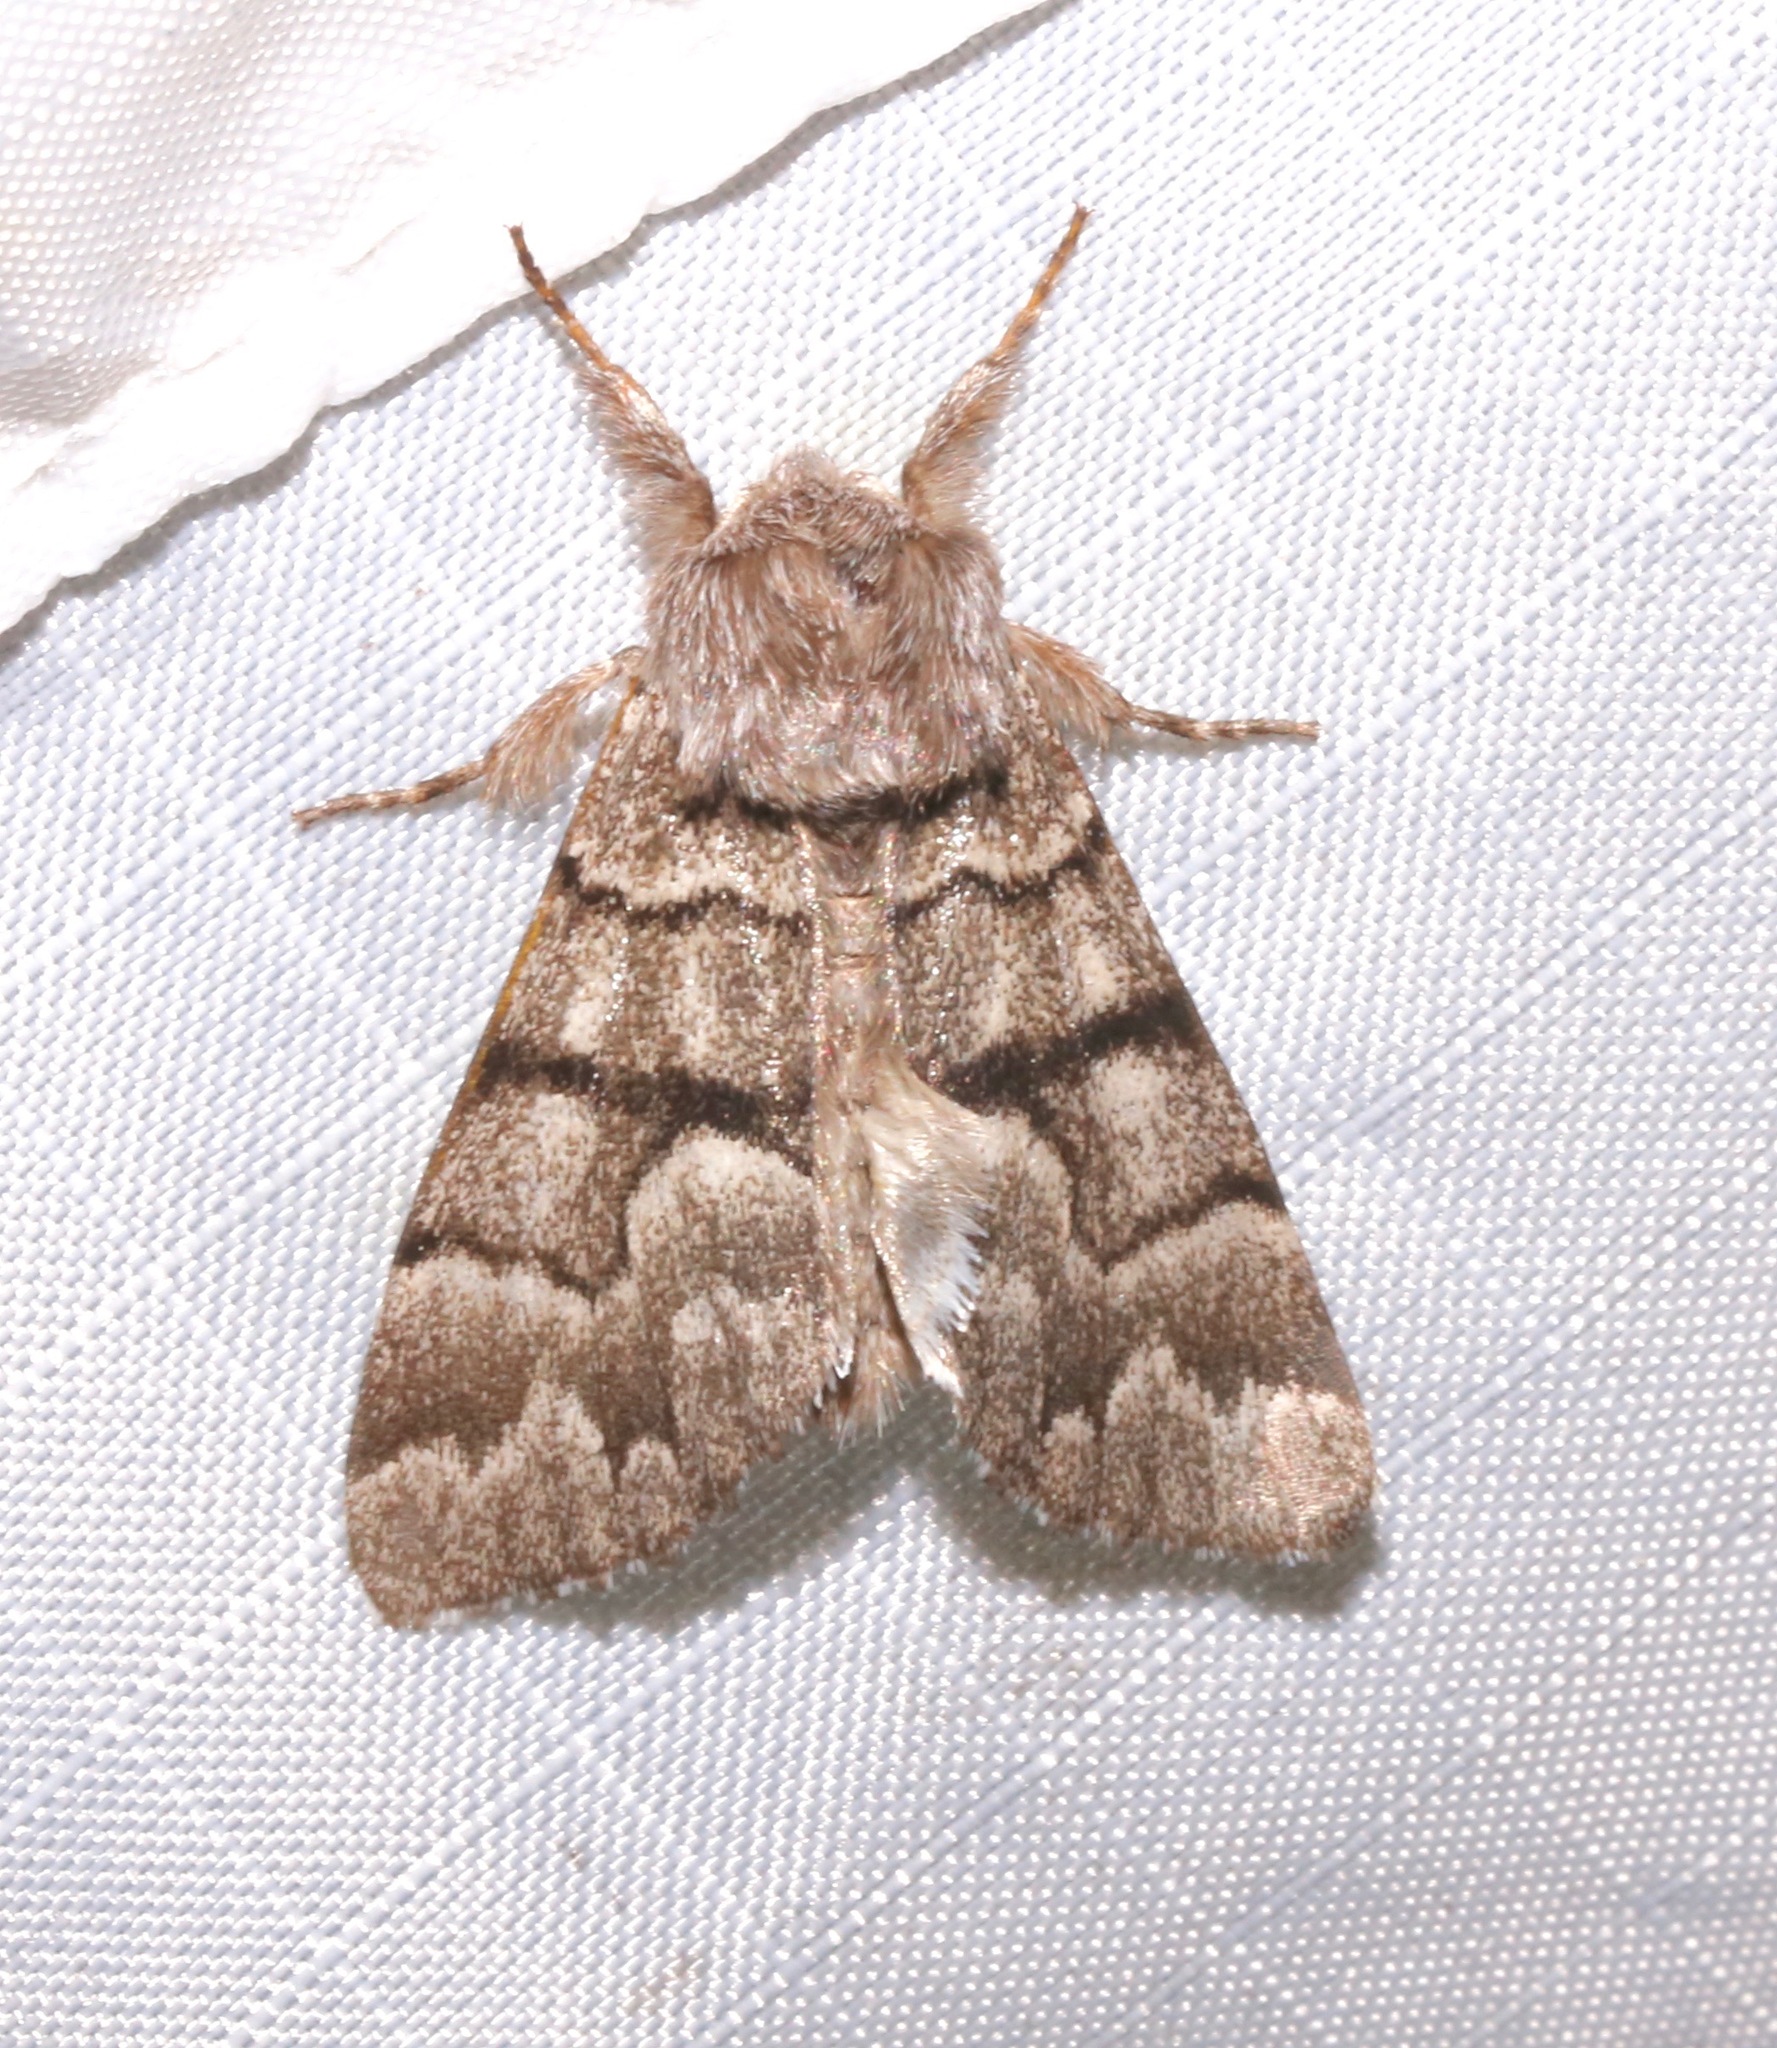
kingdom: Animalia
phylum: Arthropoda
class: Insecta
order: Lepidoptera
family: Noctuidae
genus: Panthea
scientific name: Panthea furcilla
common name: Eastern panthea moth
